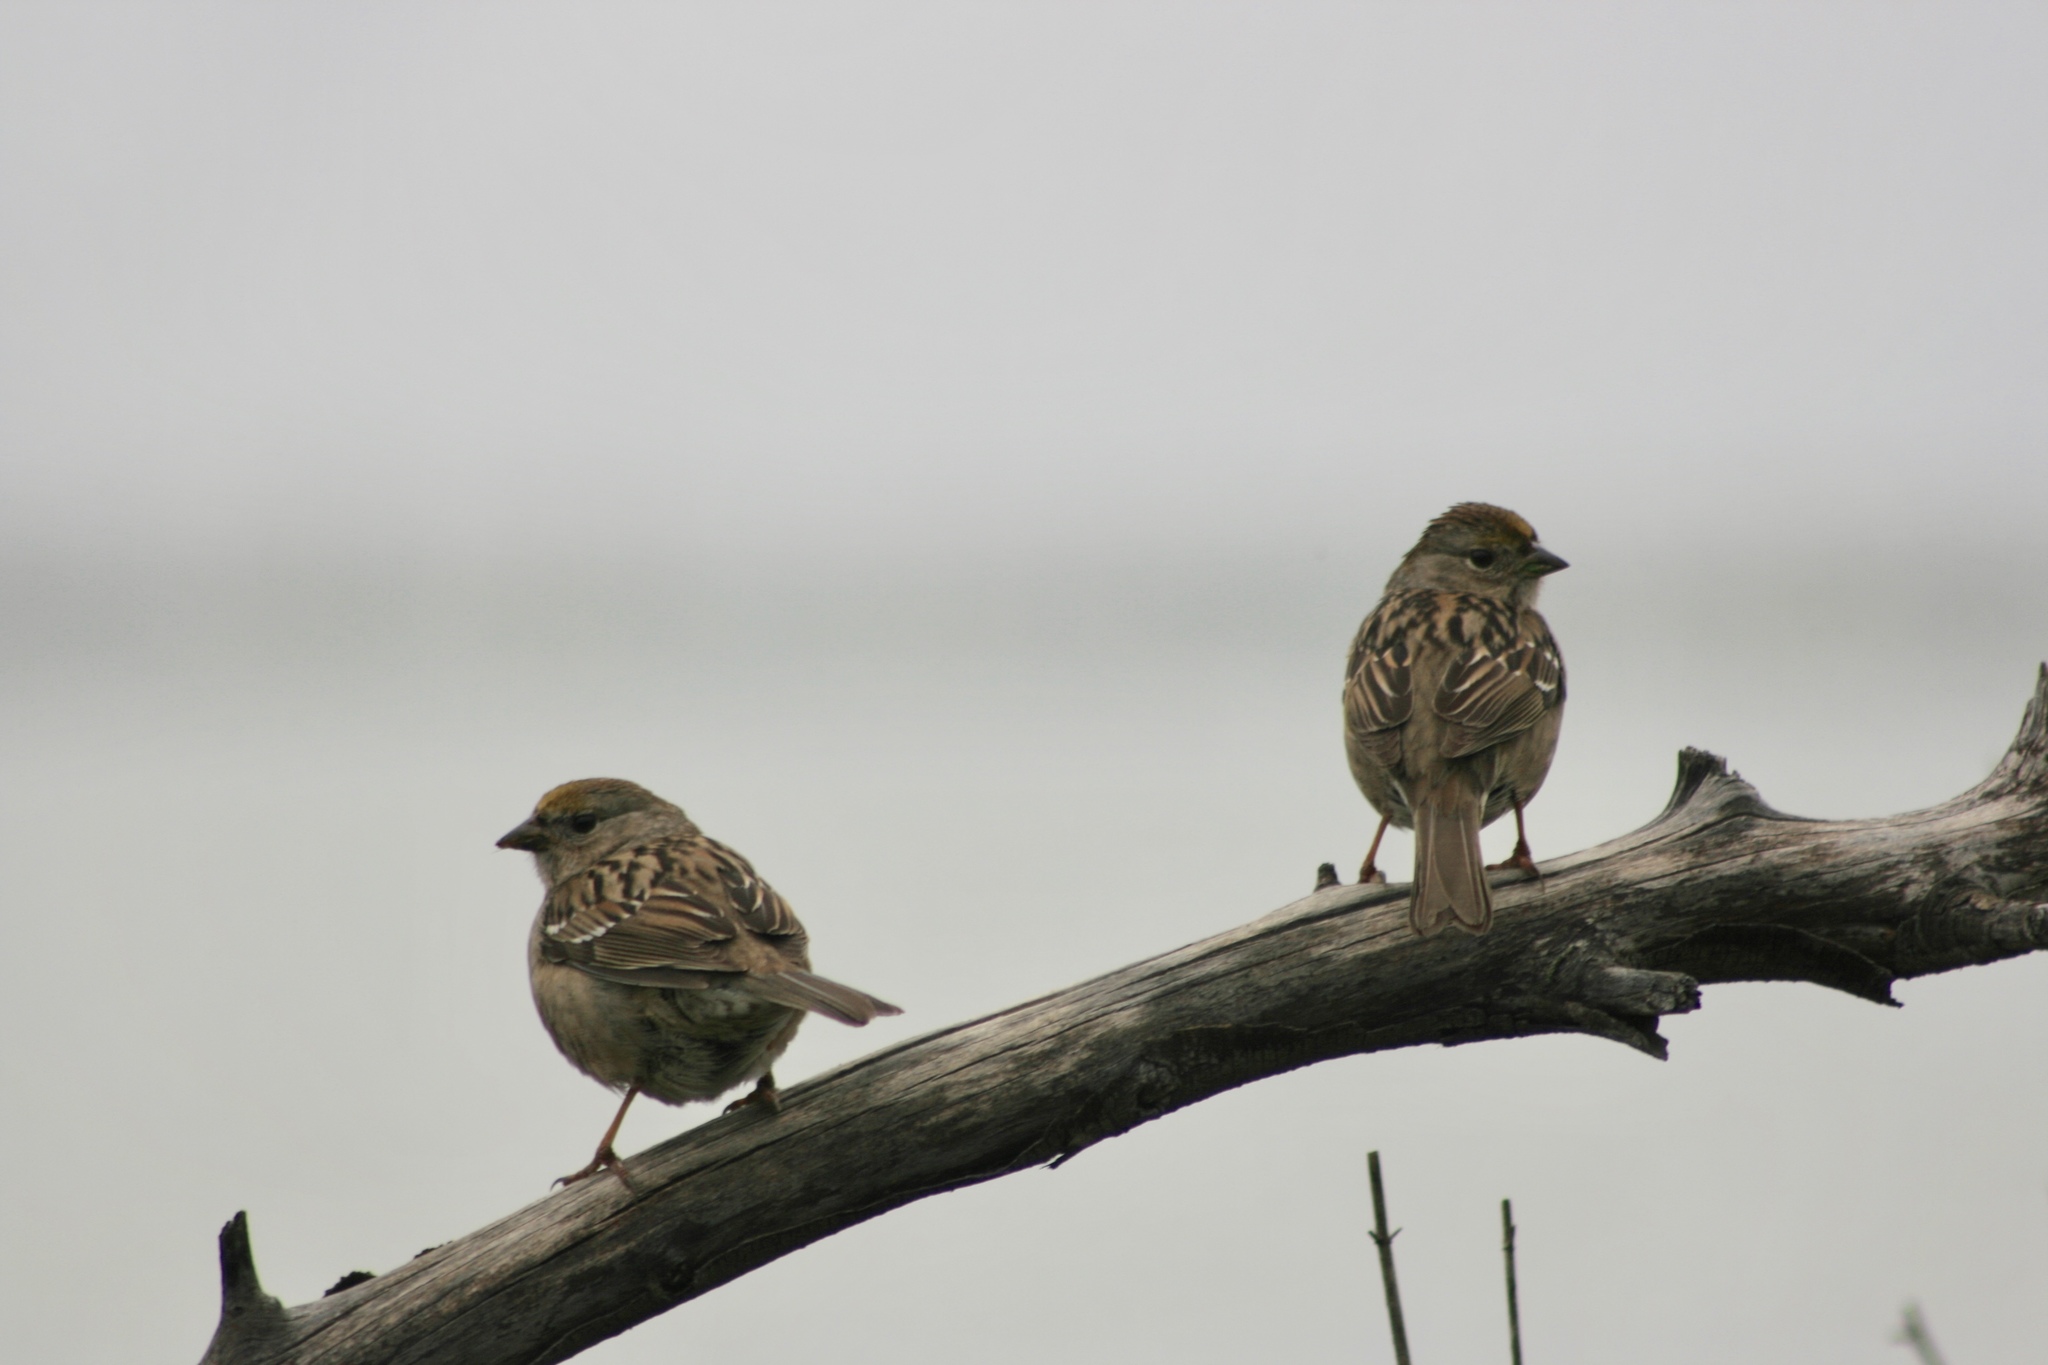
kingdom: Animalia
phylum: Chordata
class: Aves
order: Passeriformes
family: Passerellidae
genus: Zonotrichia
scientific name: Zonotrichia atricapilla
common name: Golden-crowned sparrow
